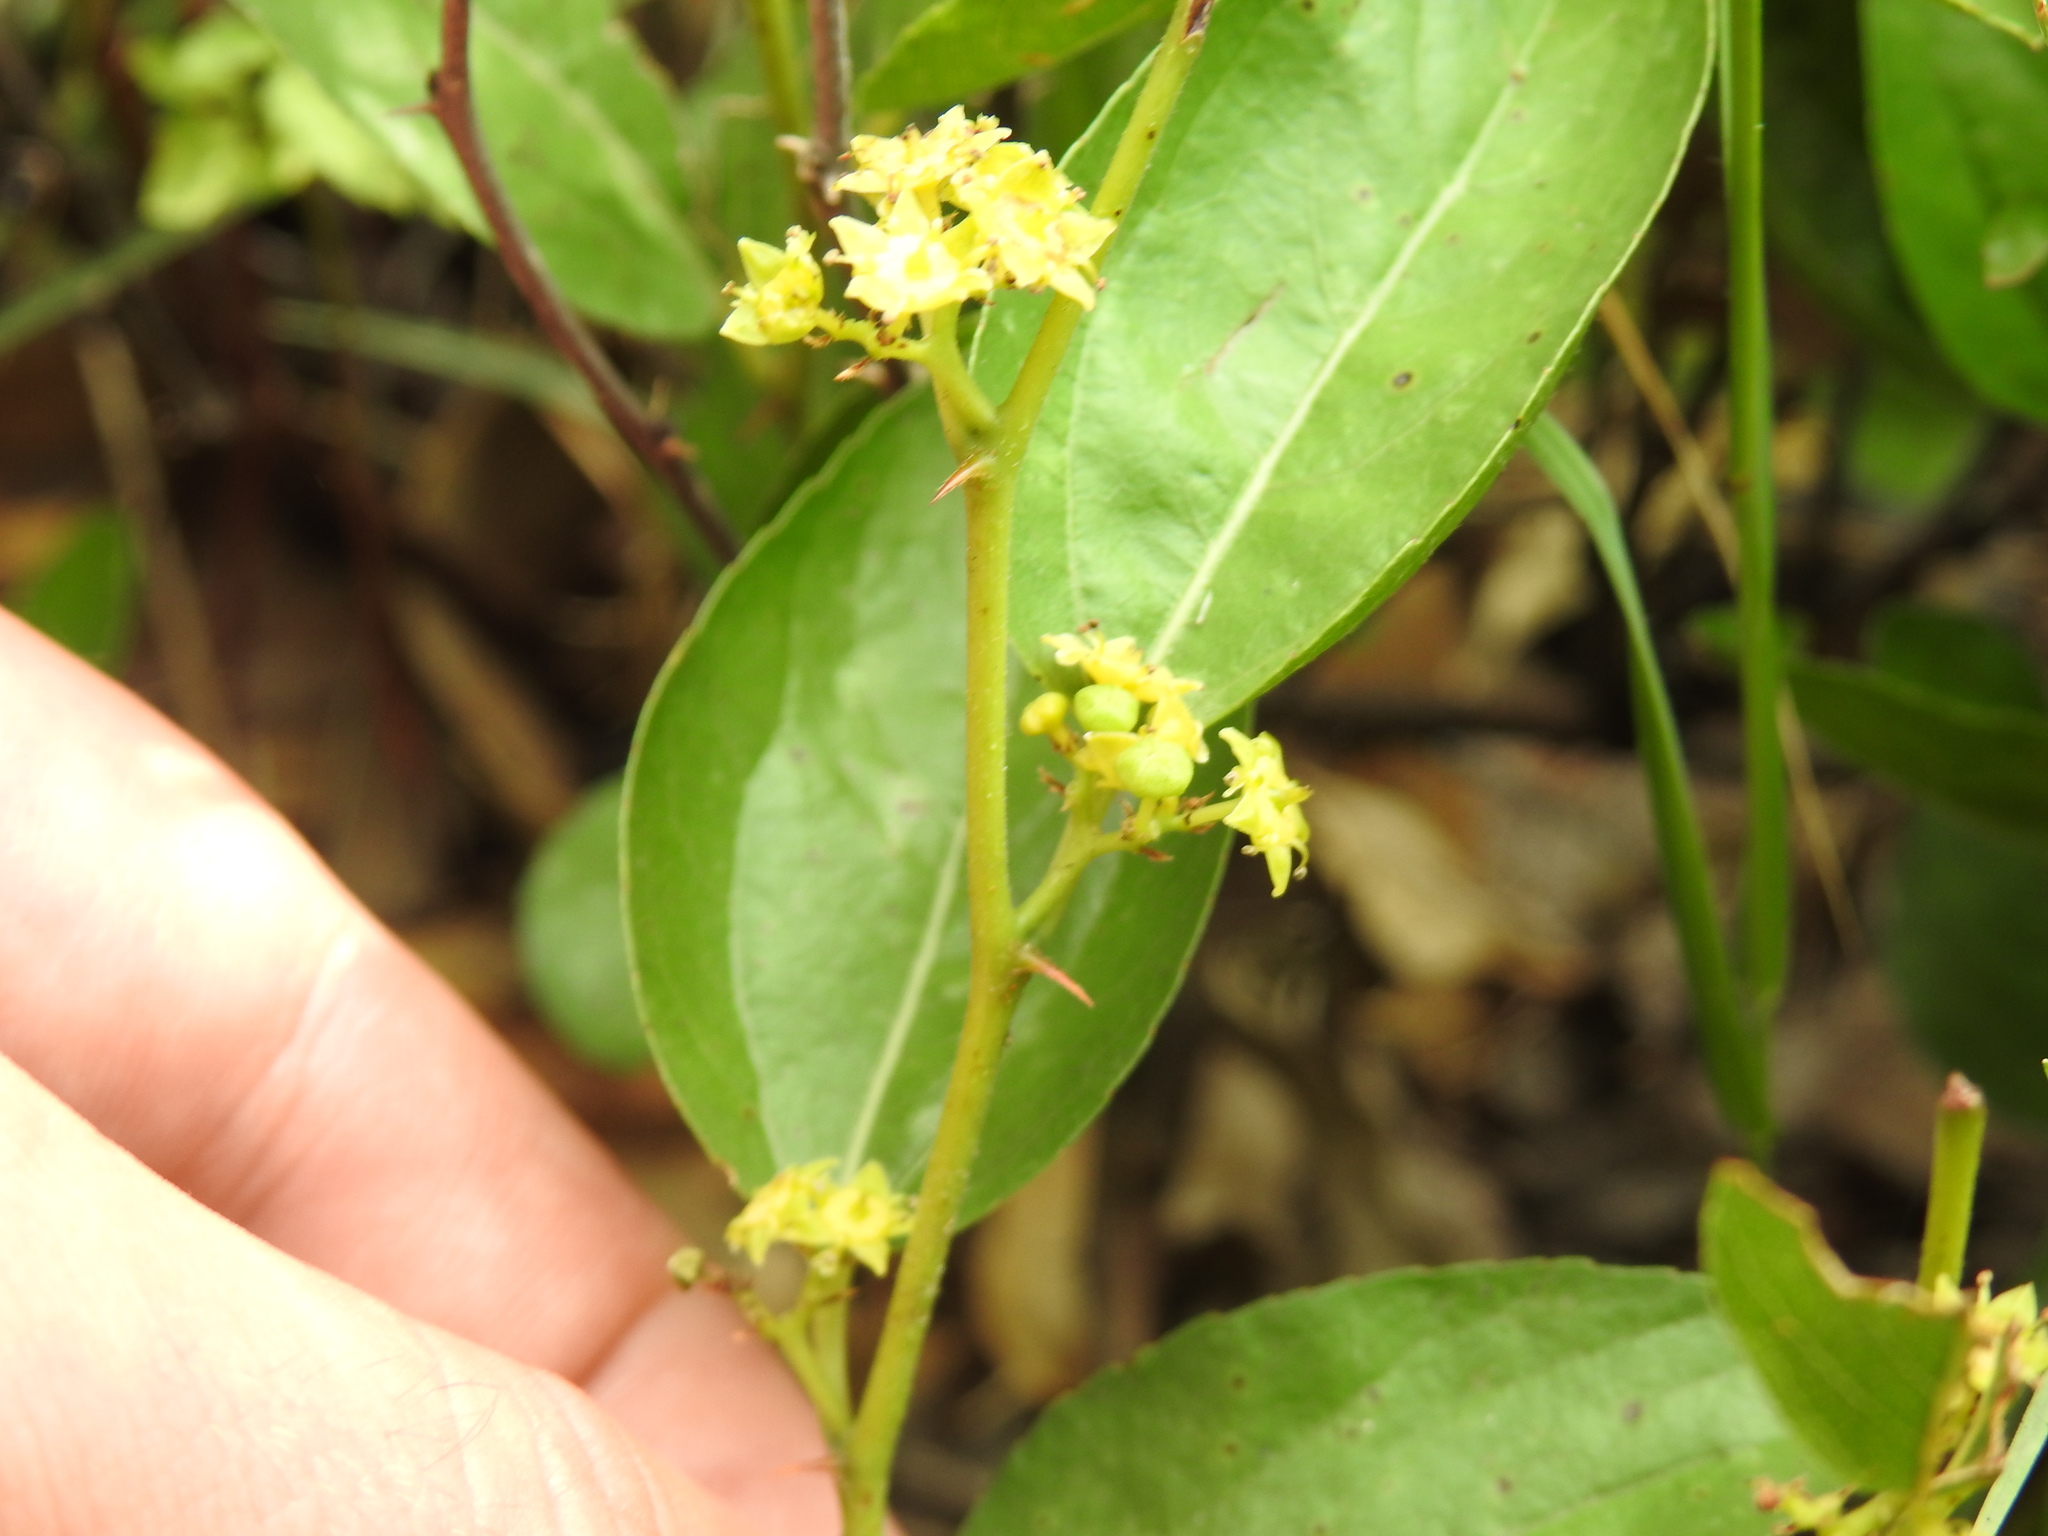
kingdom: Plantae
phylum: Tracheophyta
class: Magnoliopsida
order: Rosales
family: Rhamnaceae
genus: Ziziphus
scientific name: Ziziphus zeyheriana
